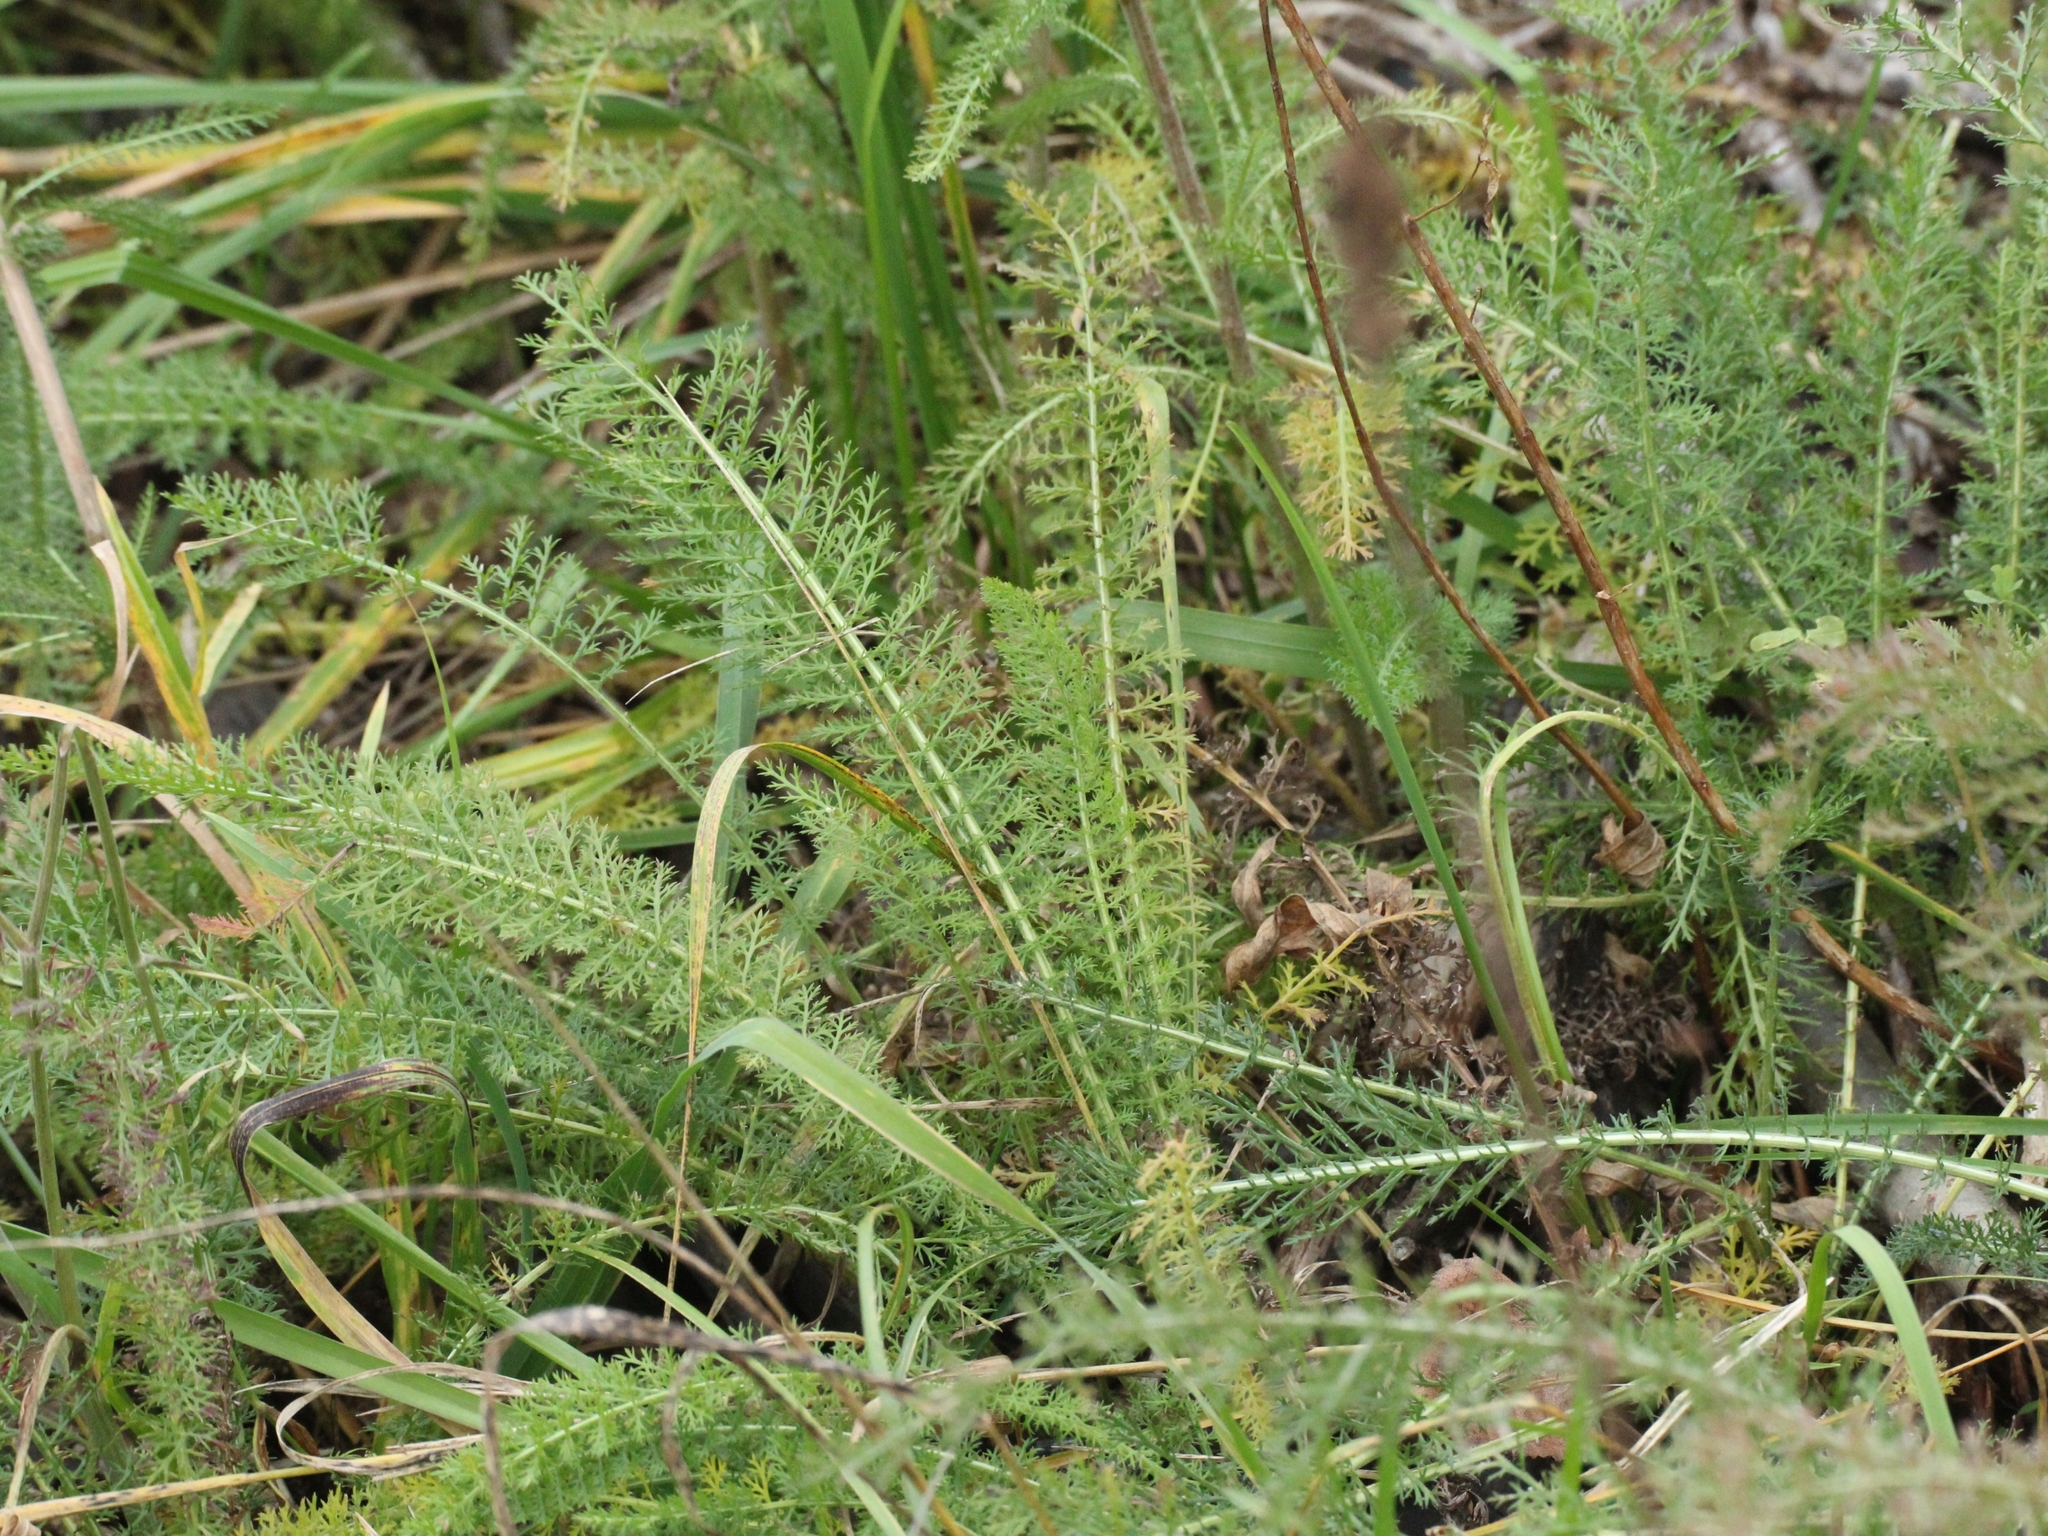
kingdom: Plantae
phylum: Tracheophyta
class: Magnoliopsida
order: Asterales
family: Asteraceae
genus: Achillea
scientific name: Achillea millefolium
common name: Yarrow
